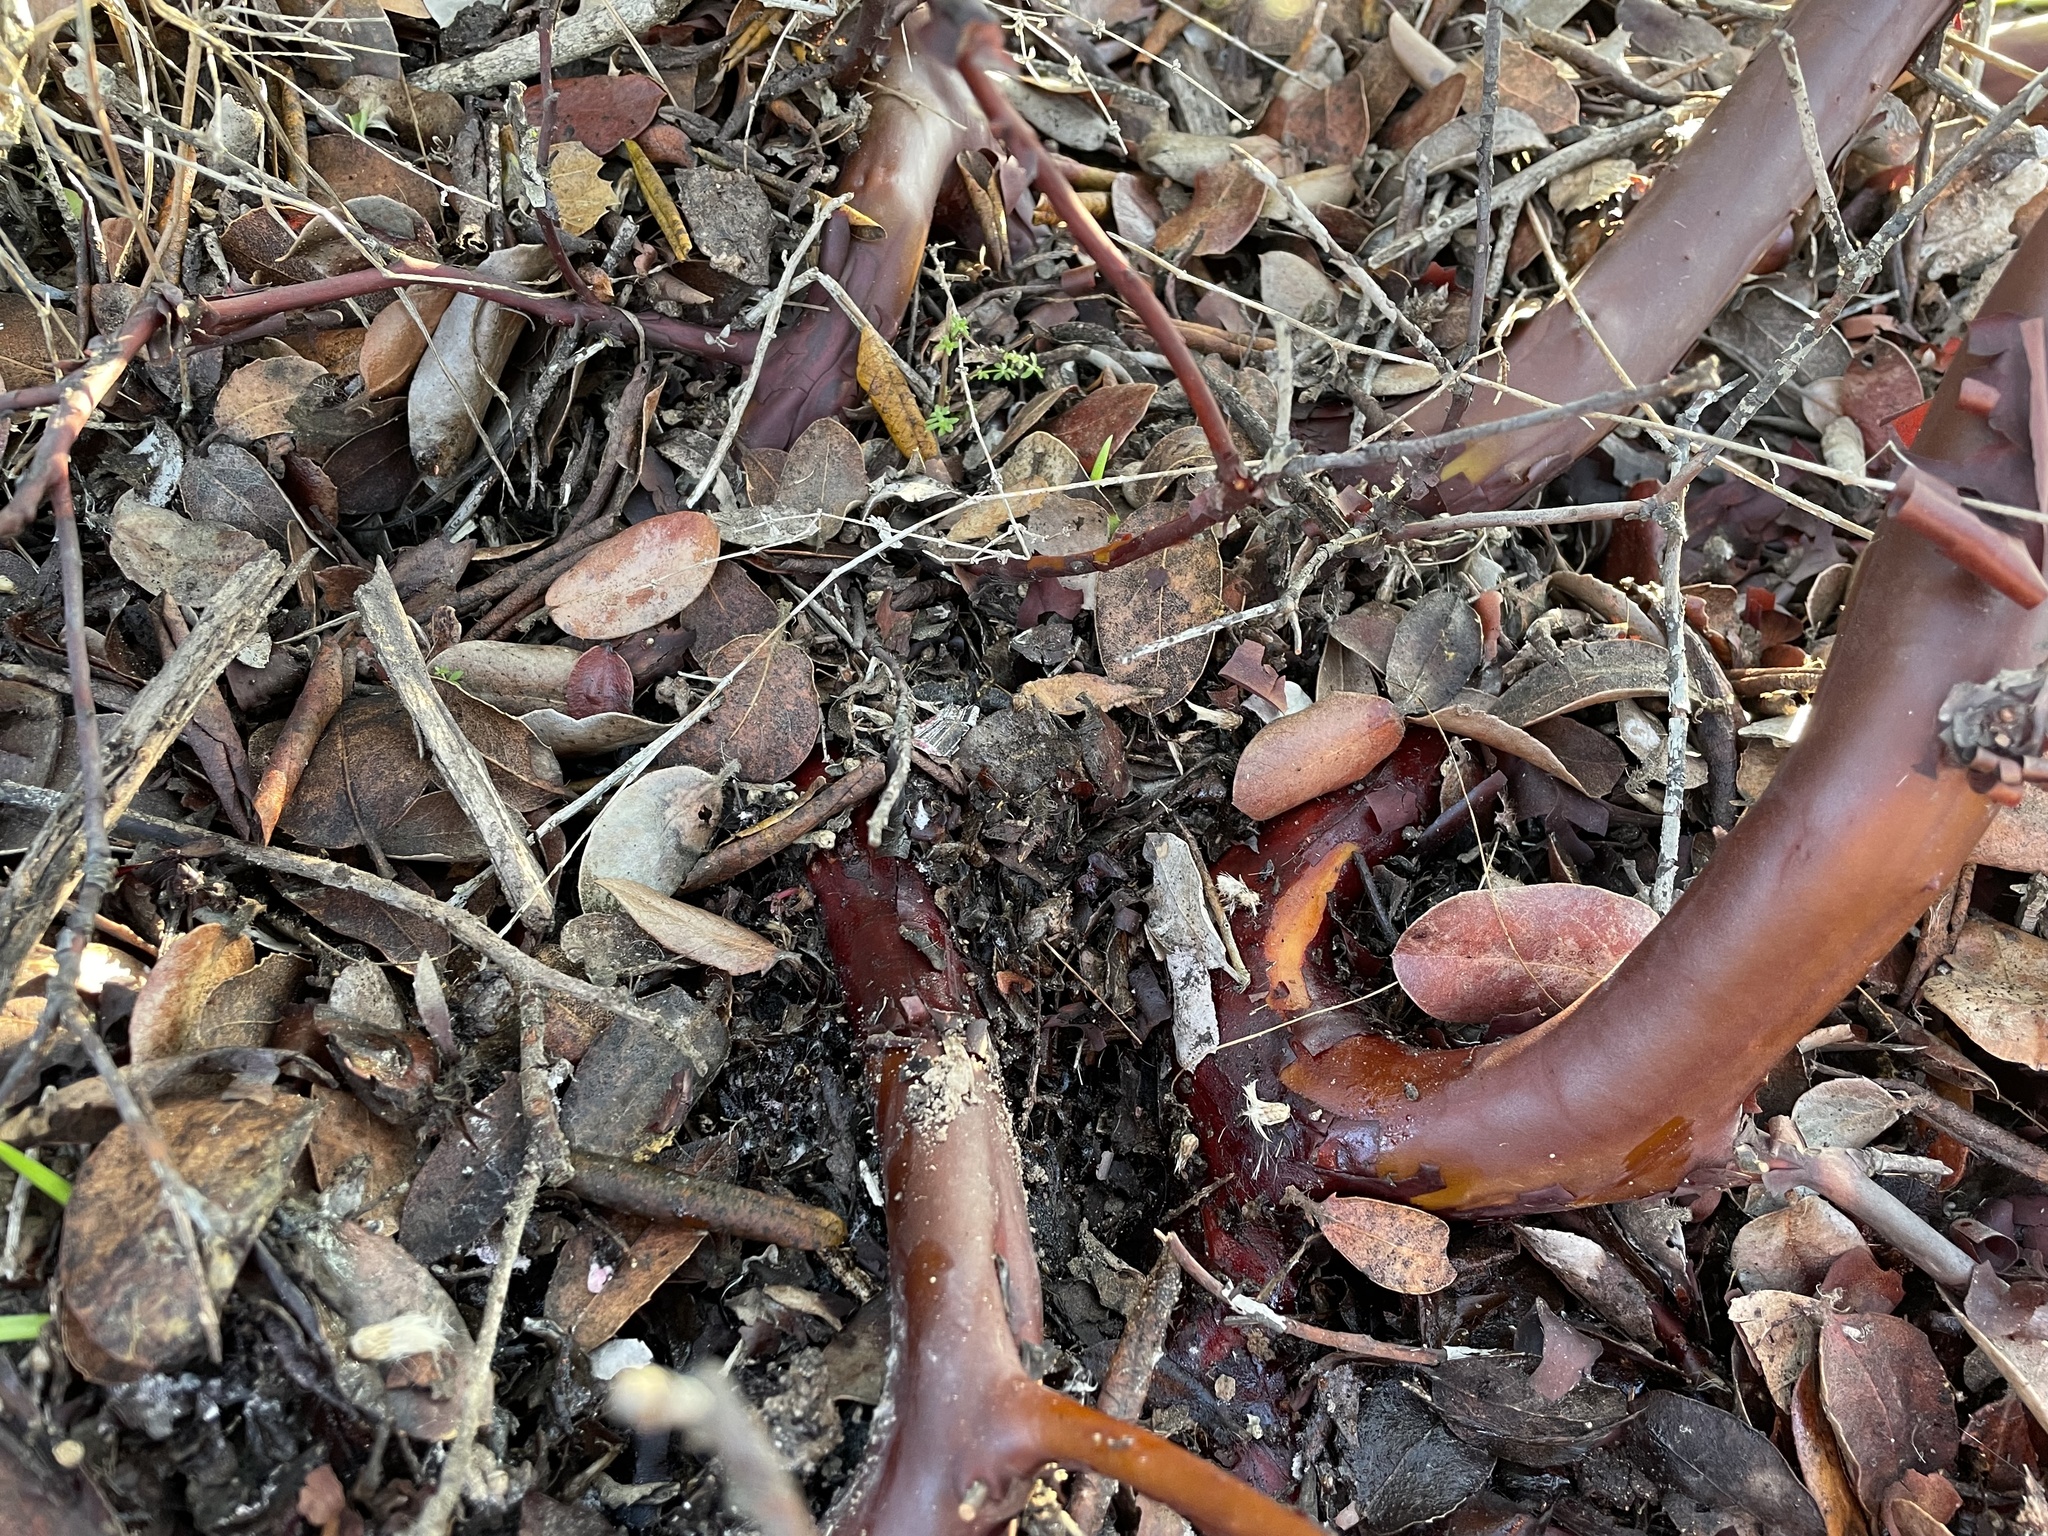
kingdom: Plantae
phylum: Tracheophyta
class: Magnoliopsida
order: Ericales
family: Ericaceae
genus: Arctostaphylos
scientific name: Arctostaphylos crustacea
